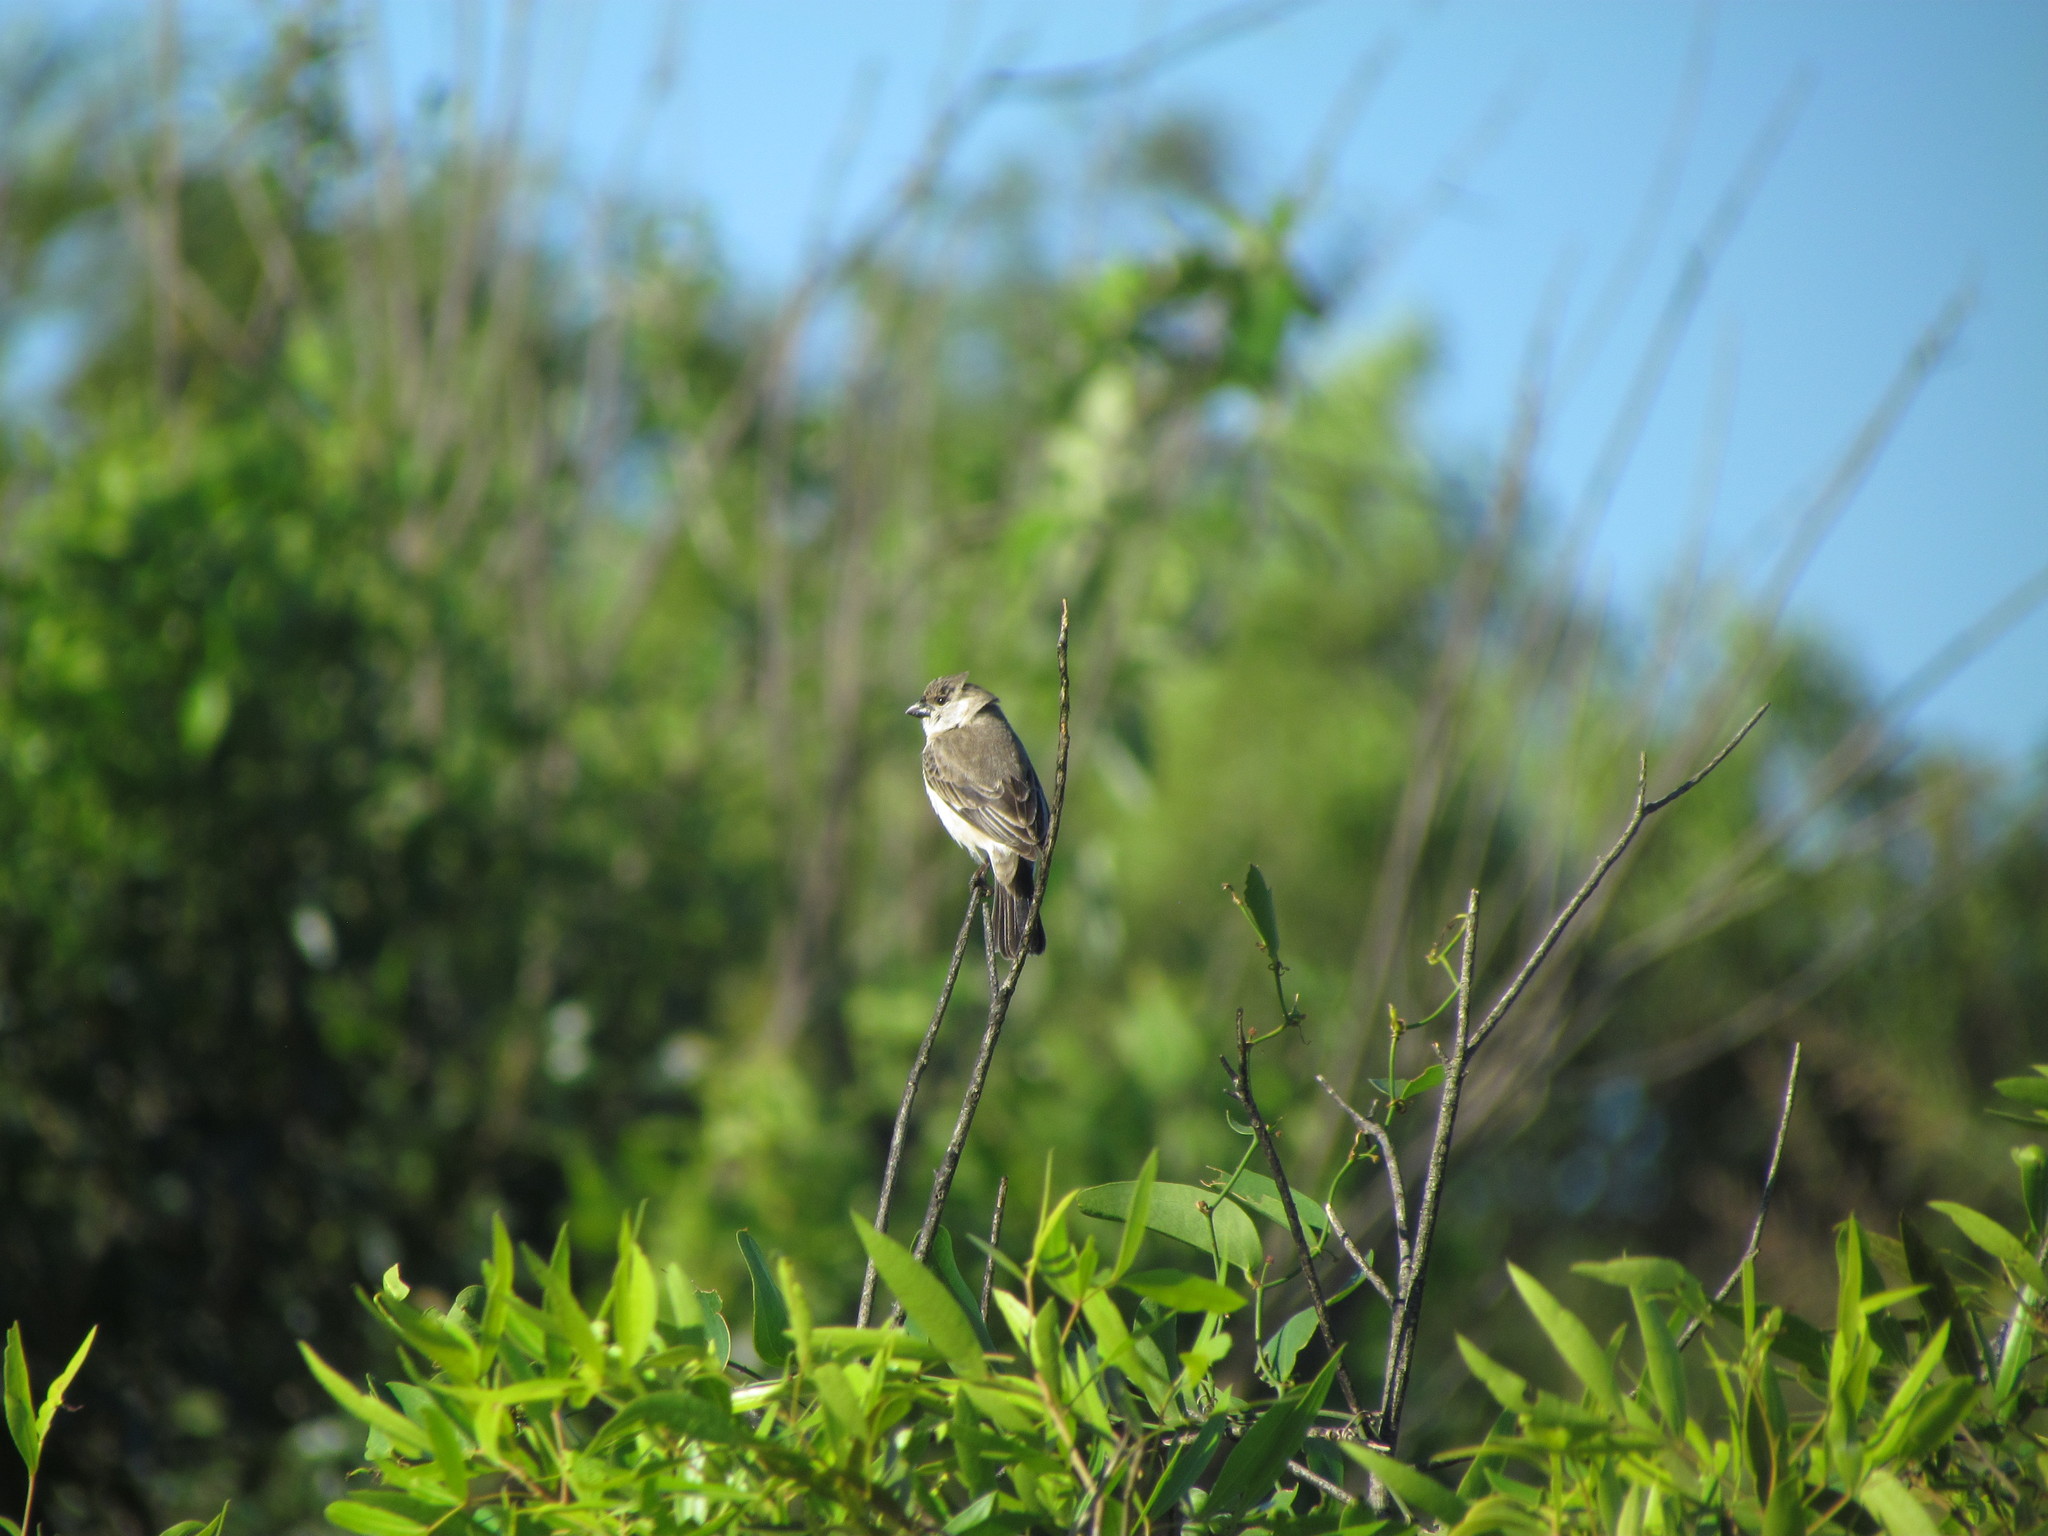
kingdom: Animalia
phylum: Chordata
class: Aves
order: Passeriformes
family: Thraupidae
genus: Sporophila
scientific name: Sporophila pileata
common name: Pearly-bellied seedeater
